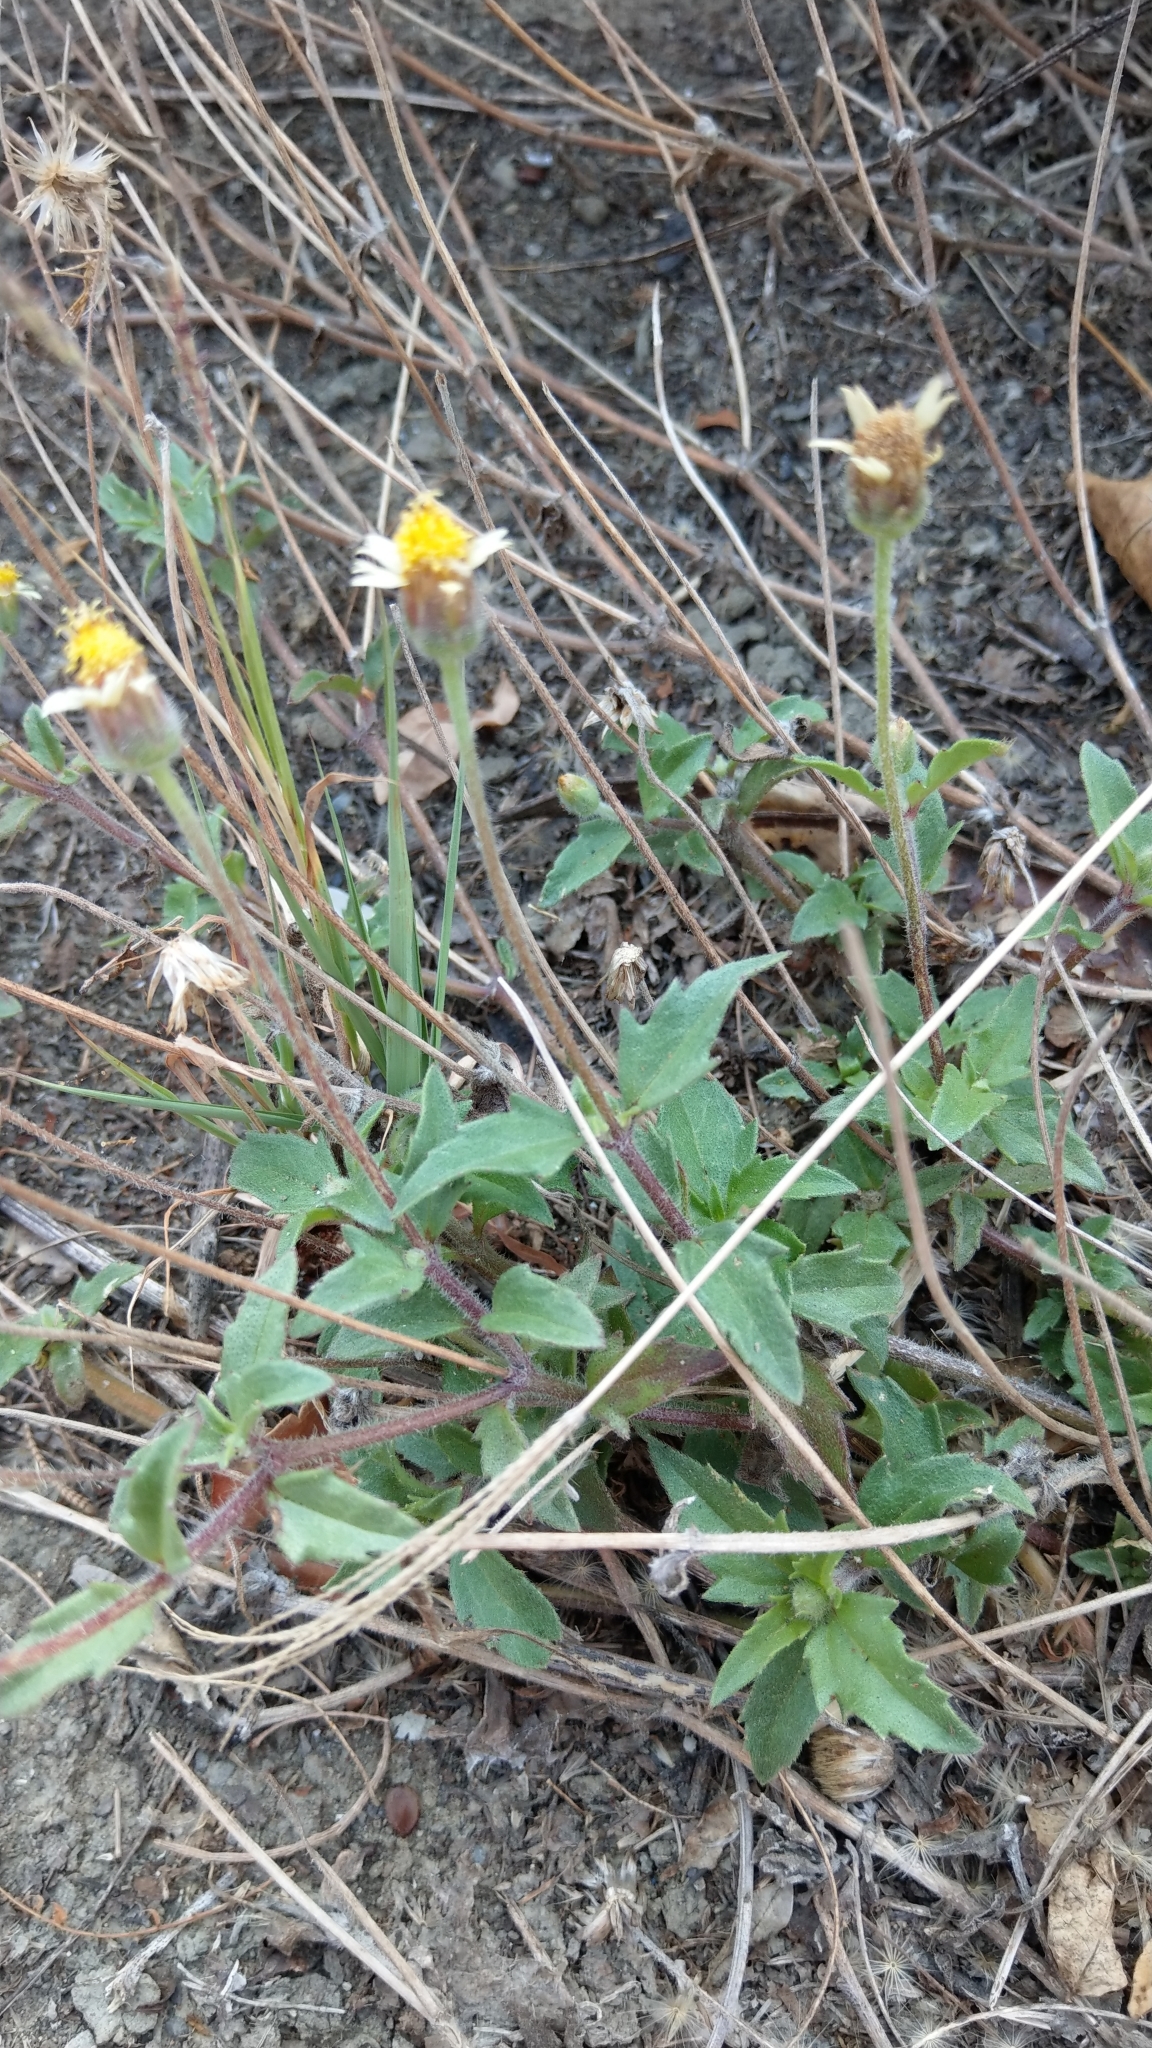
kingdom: Plantae
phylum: Tracheophyta
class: Magnoliopsida
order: Asterales
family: Asteraceae
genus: Tridax
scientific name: Tridax procumbens
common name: Coatbuttons
